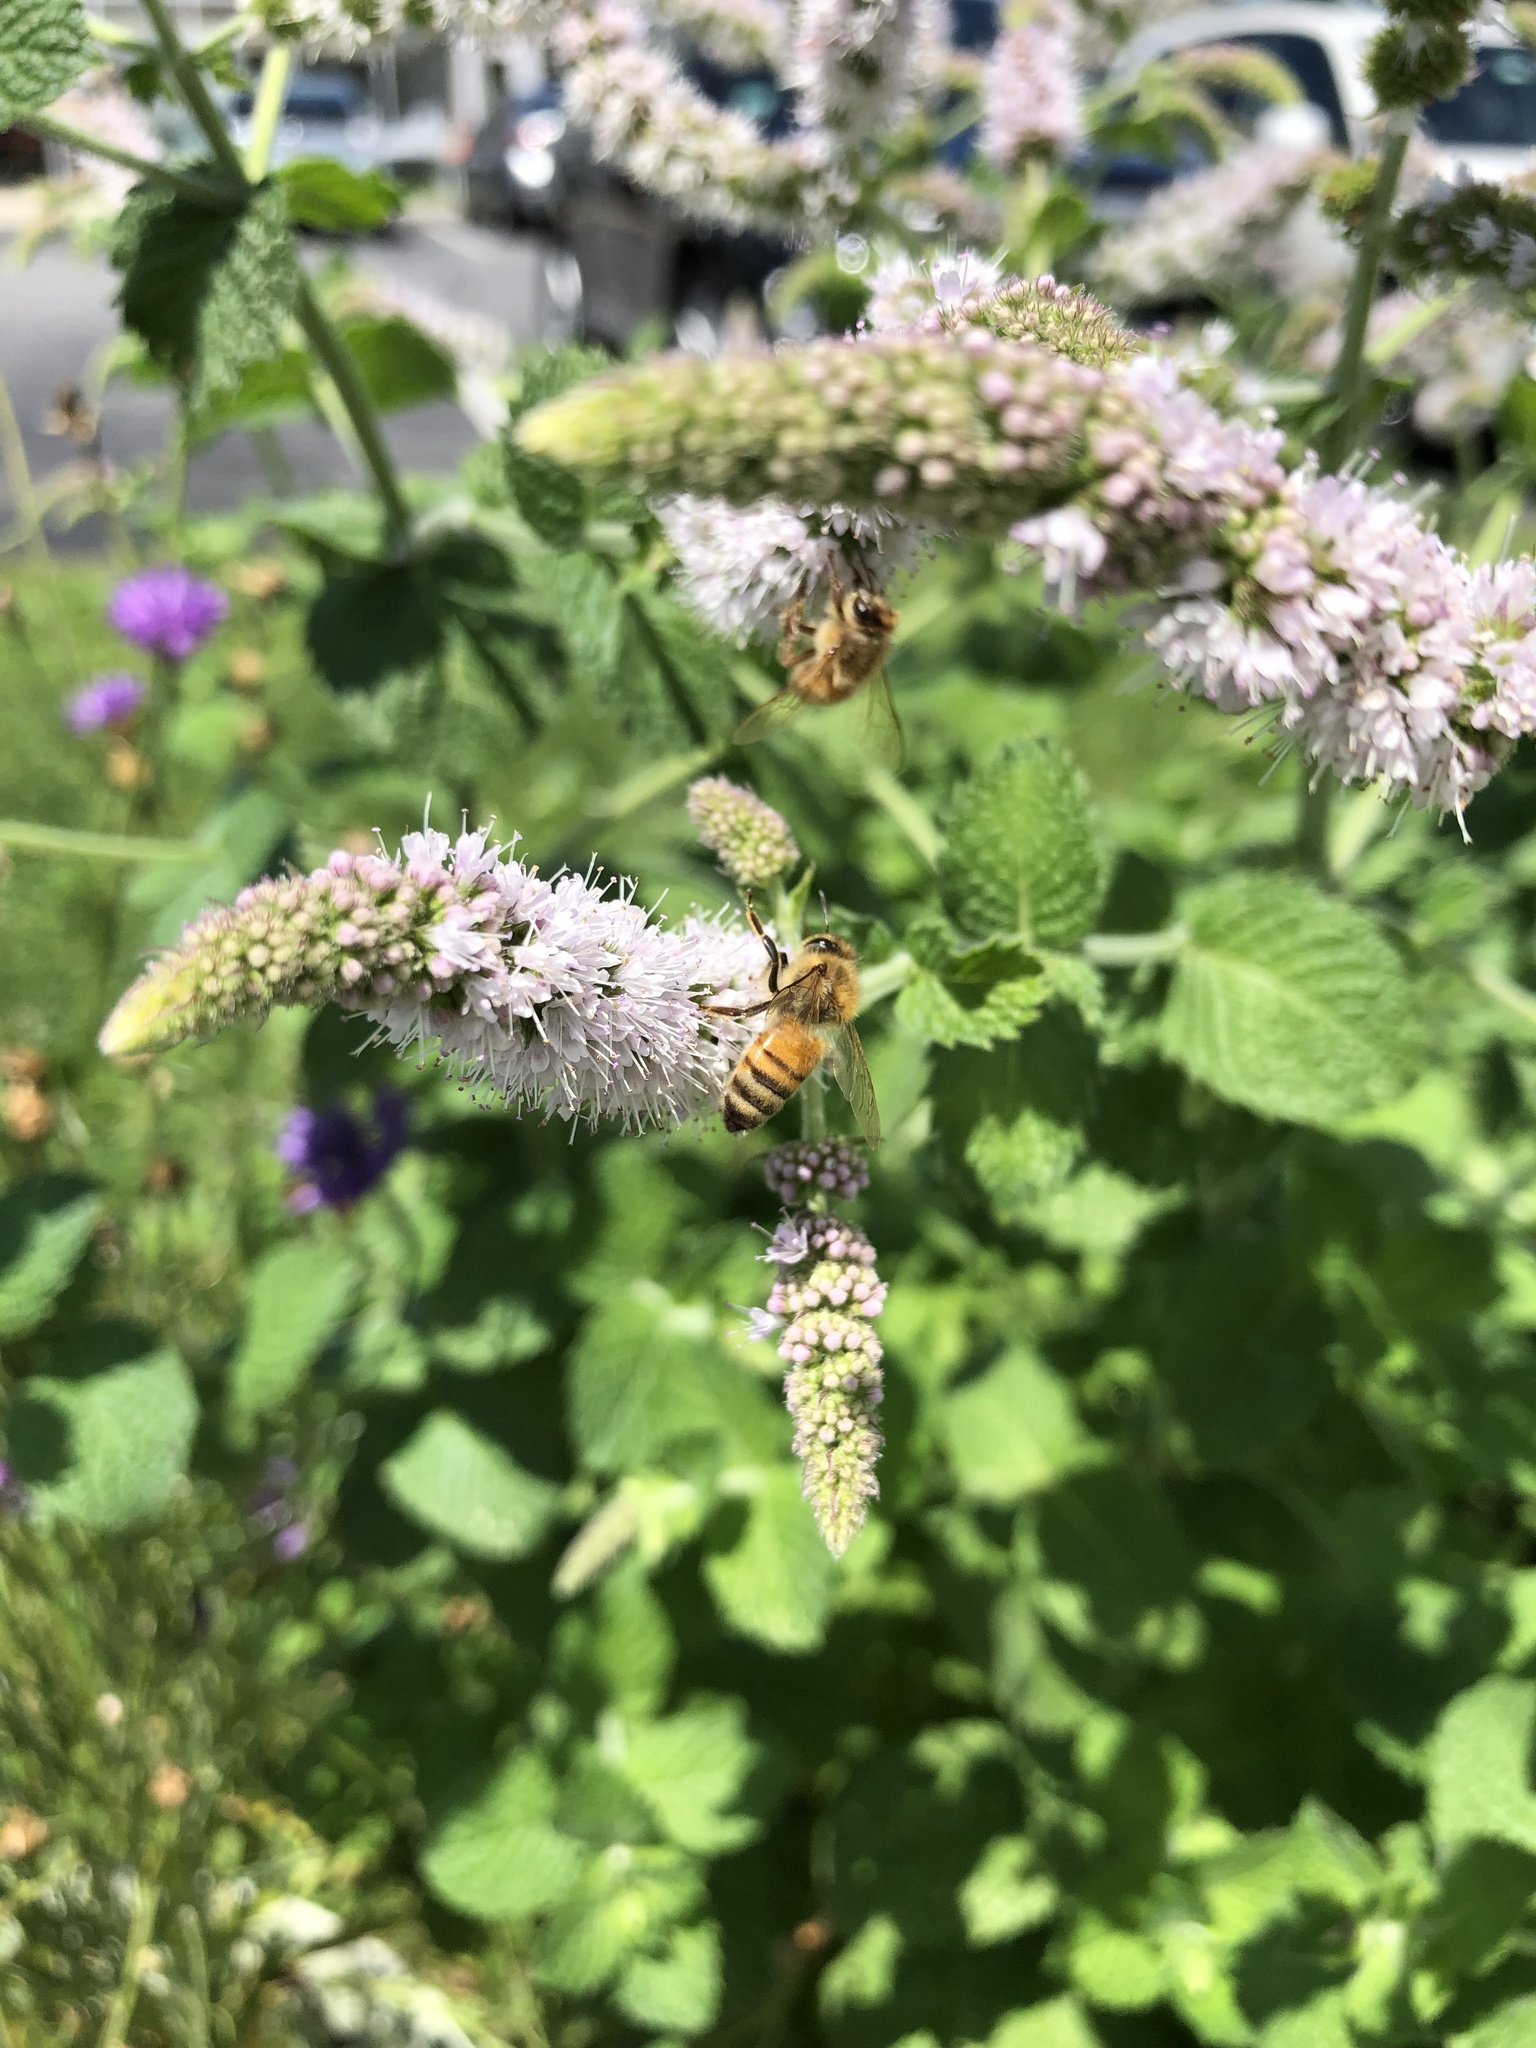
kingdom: Animalia
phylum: Arthropoda
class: Insecta
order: Hymenoptera
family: Apidae
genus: Apis
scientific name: Apis mellifera
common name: Honey bee
